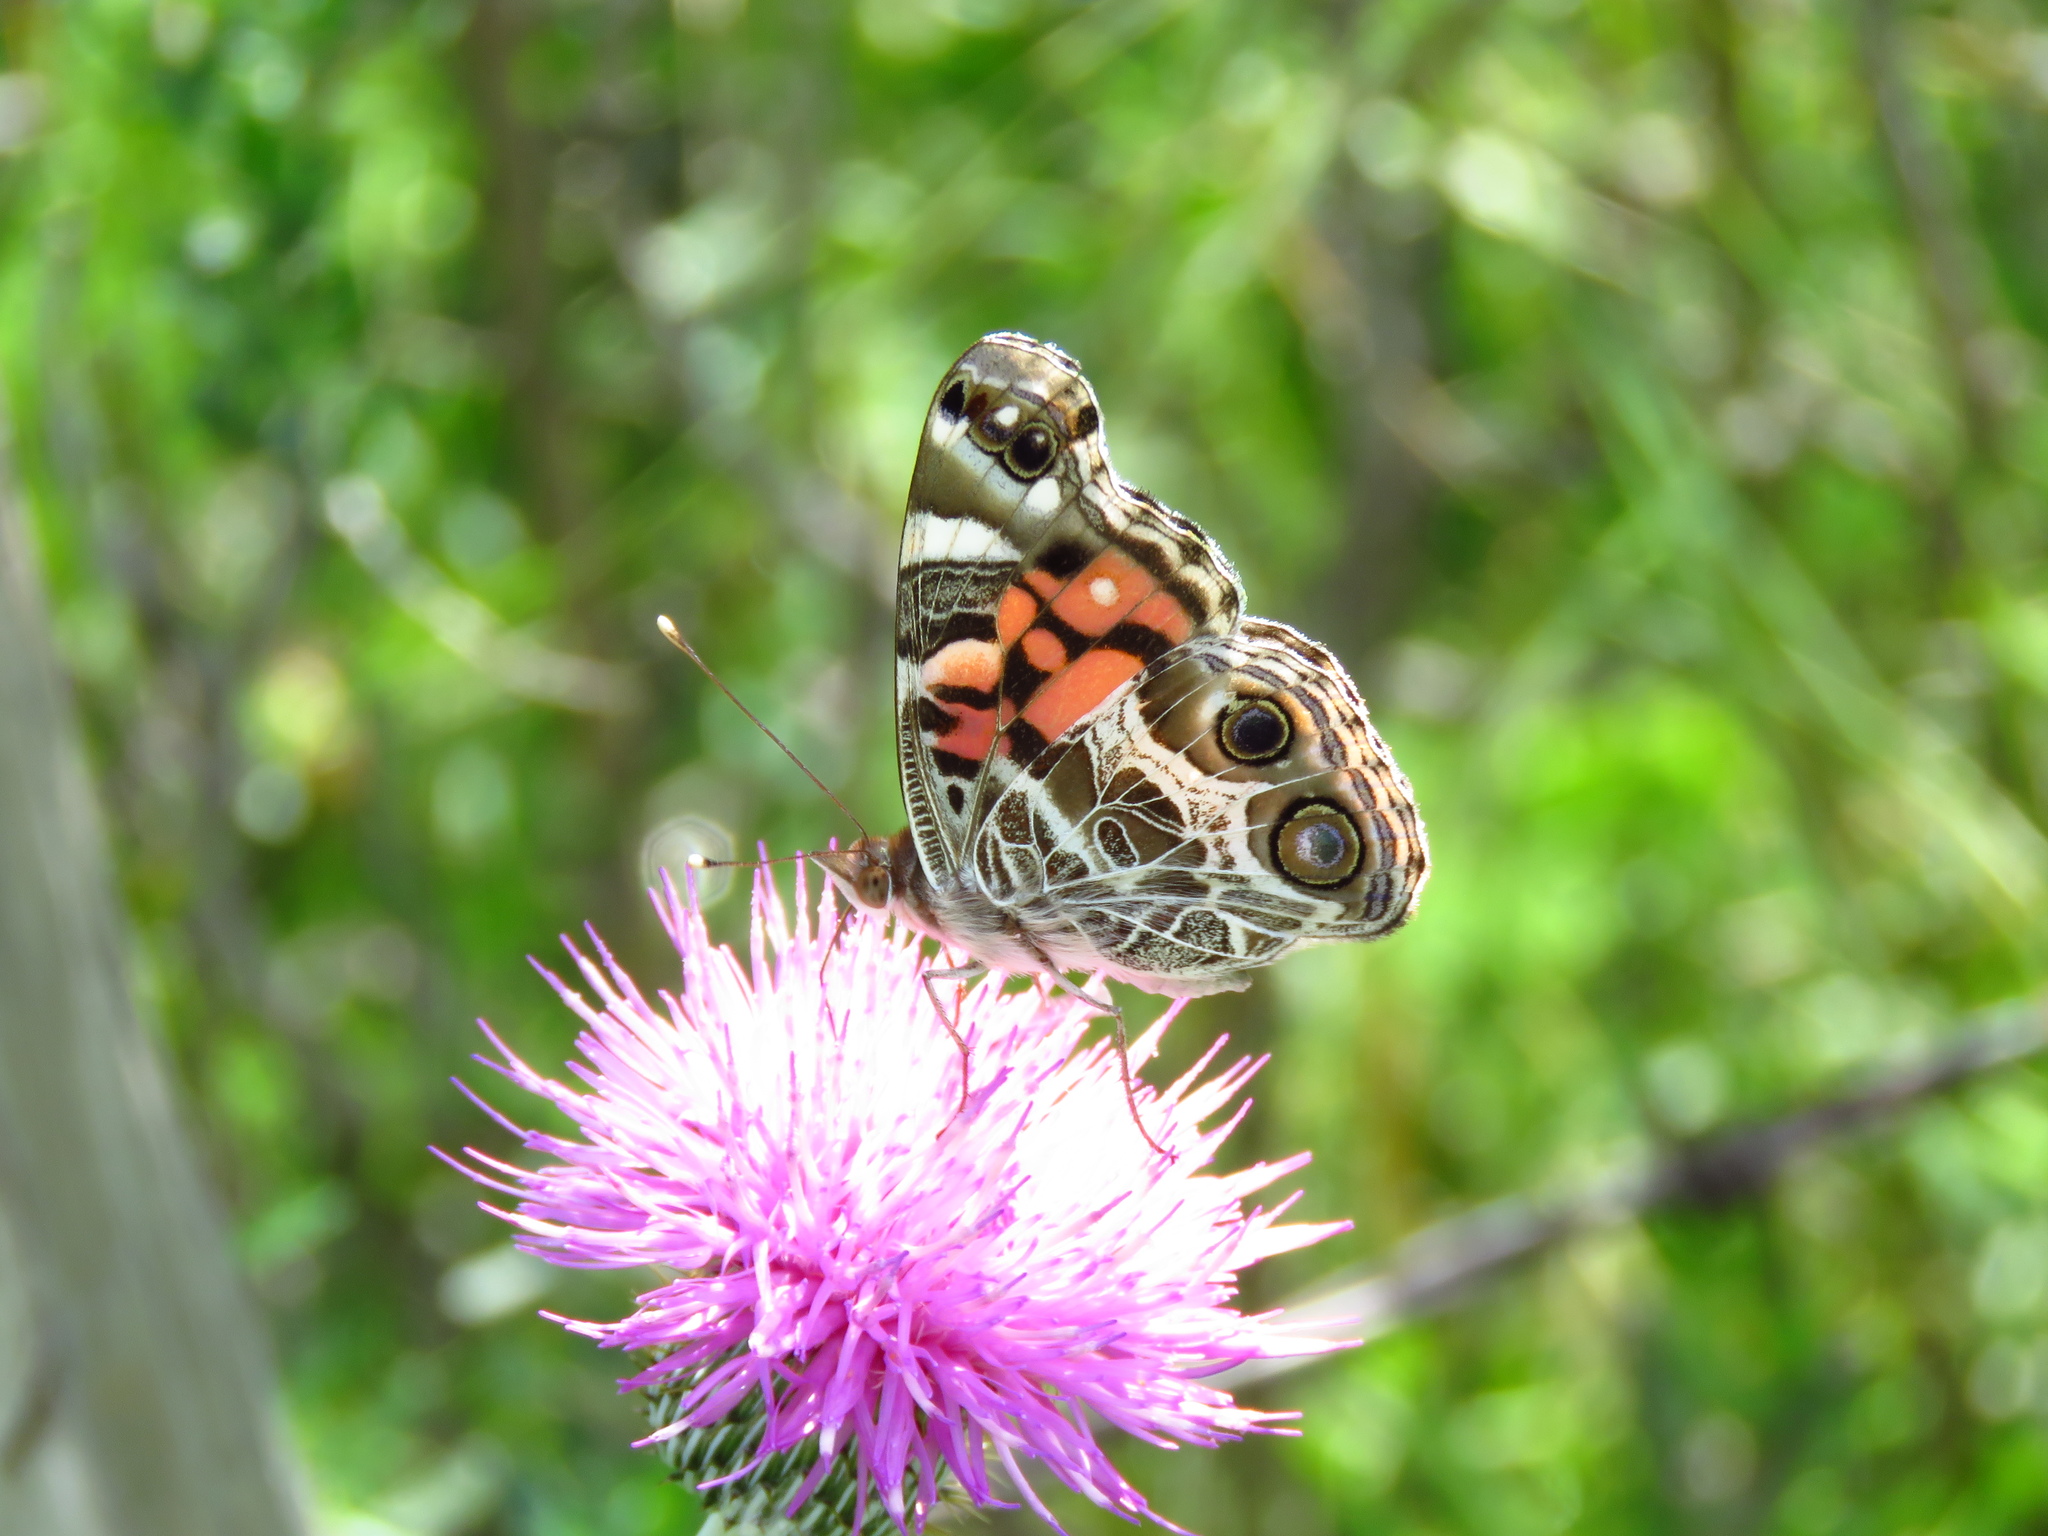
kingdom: Animalia
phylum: Arthropoda
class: Insecta
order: Lepidoptera
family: Nymphalidae
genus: Vanessa
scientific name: Vanessa virginiensis
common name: American lady
